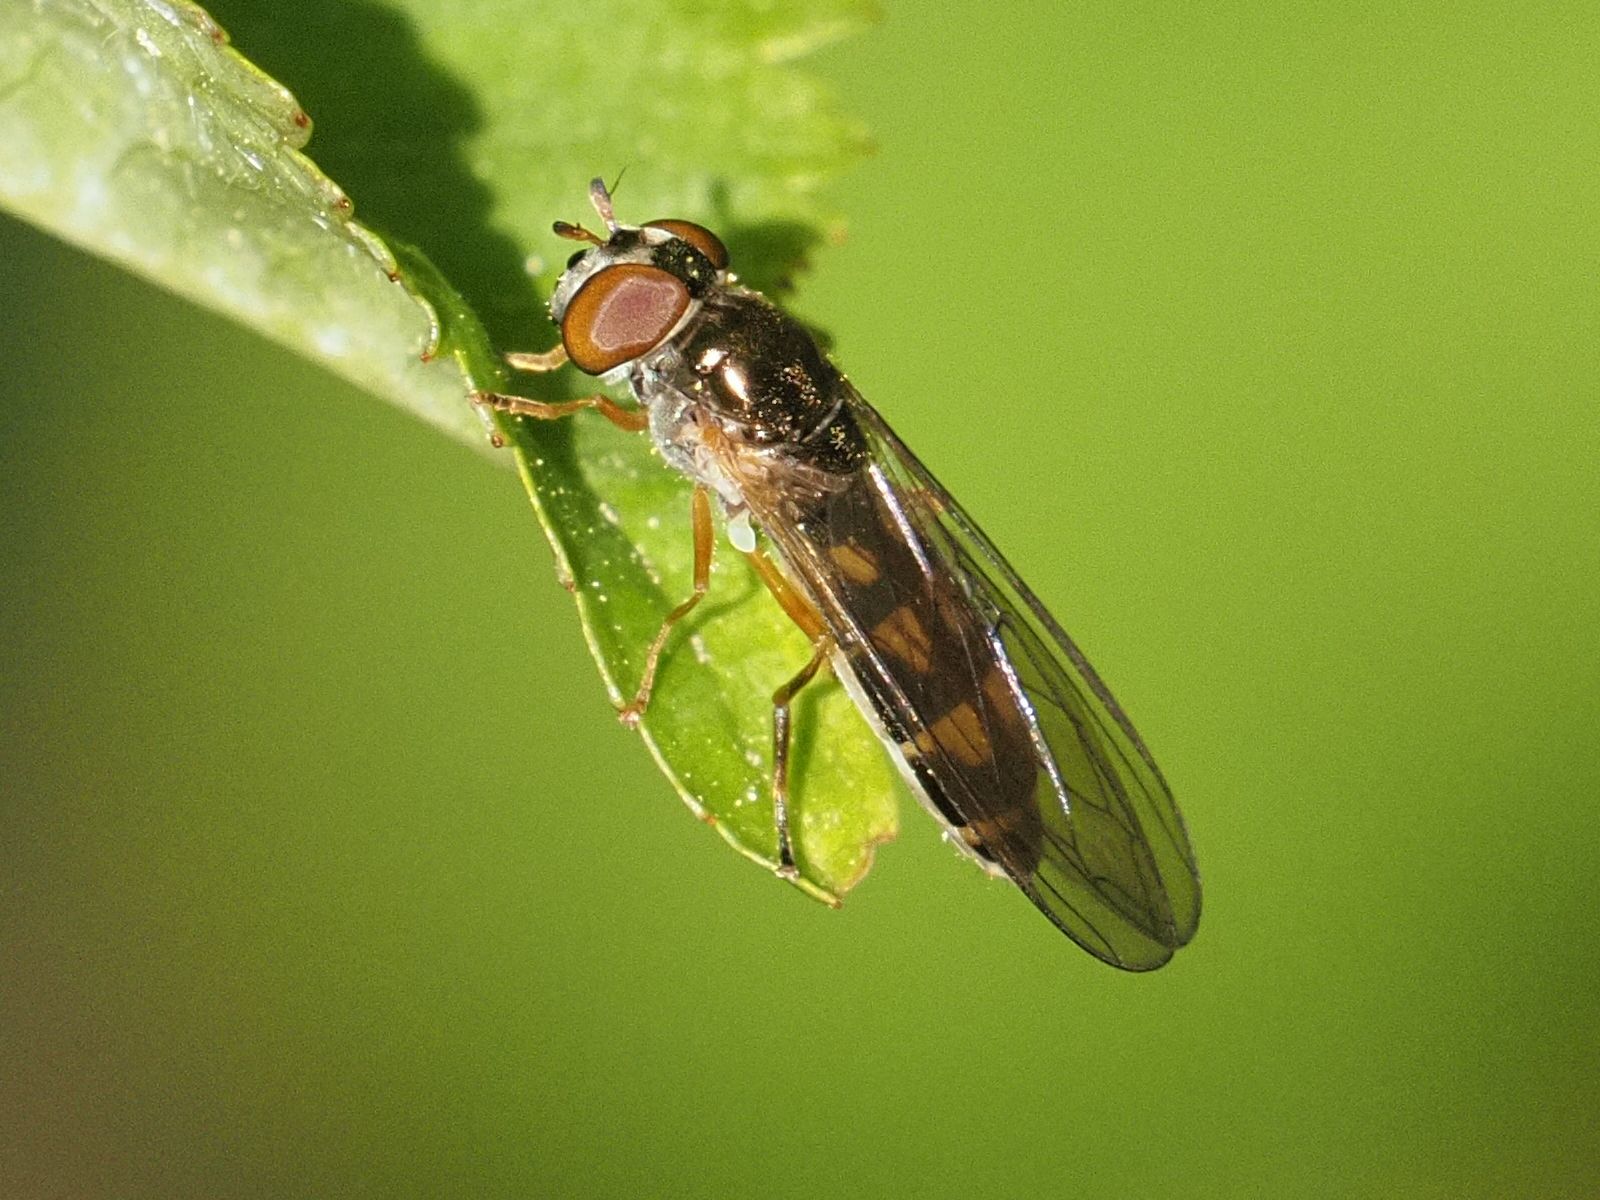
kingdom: Animalia
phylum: Arthropoda
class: Insecta
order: Diptera
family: Syrphidae
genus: Melanostoma
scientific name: Melanostoma scalare
